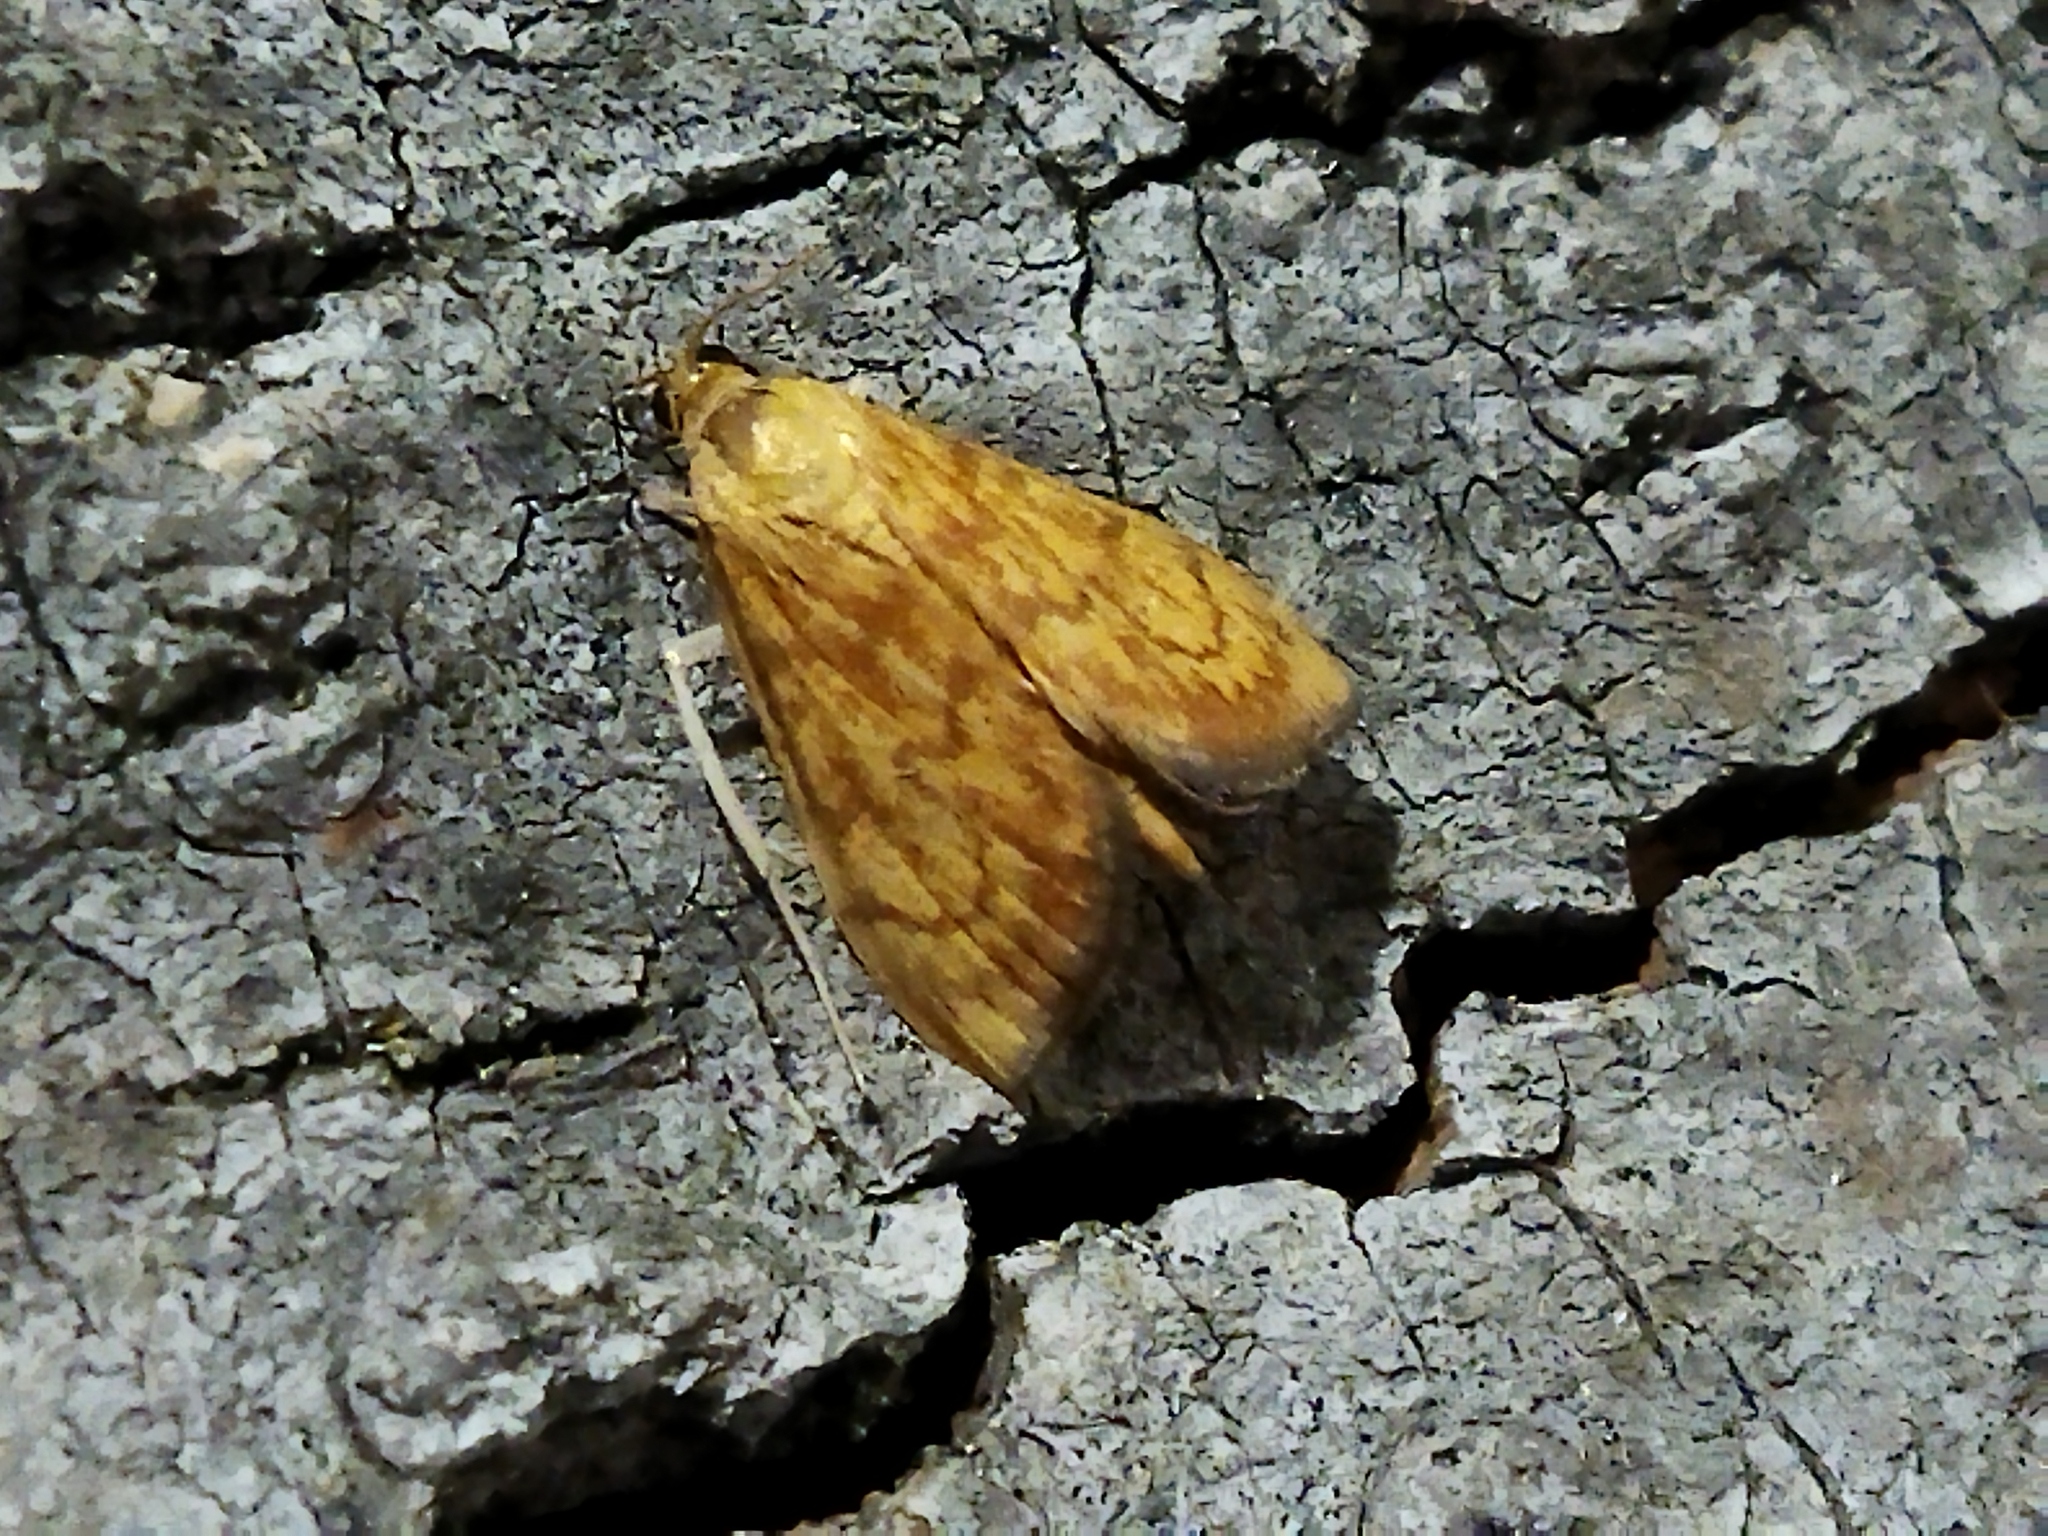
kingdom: Animalia
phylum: Arthropoda
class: Insecta
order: Lepidoptera
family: Crambidae
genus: Ecpyrrhorrhoe
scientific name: Ecpyrrhorrhoe rubiginalis
